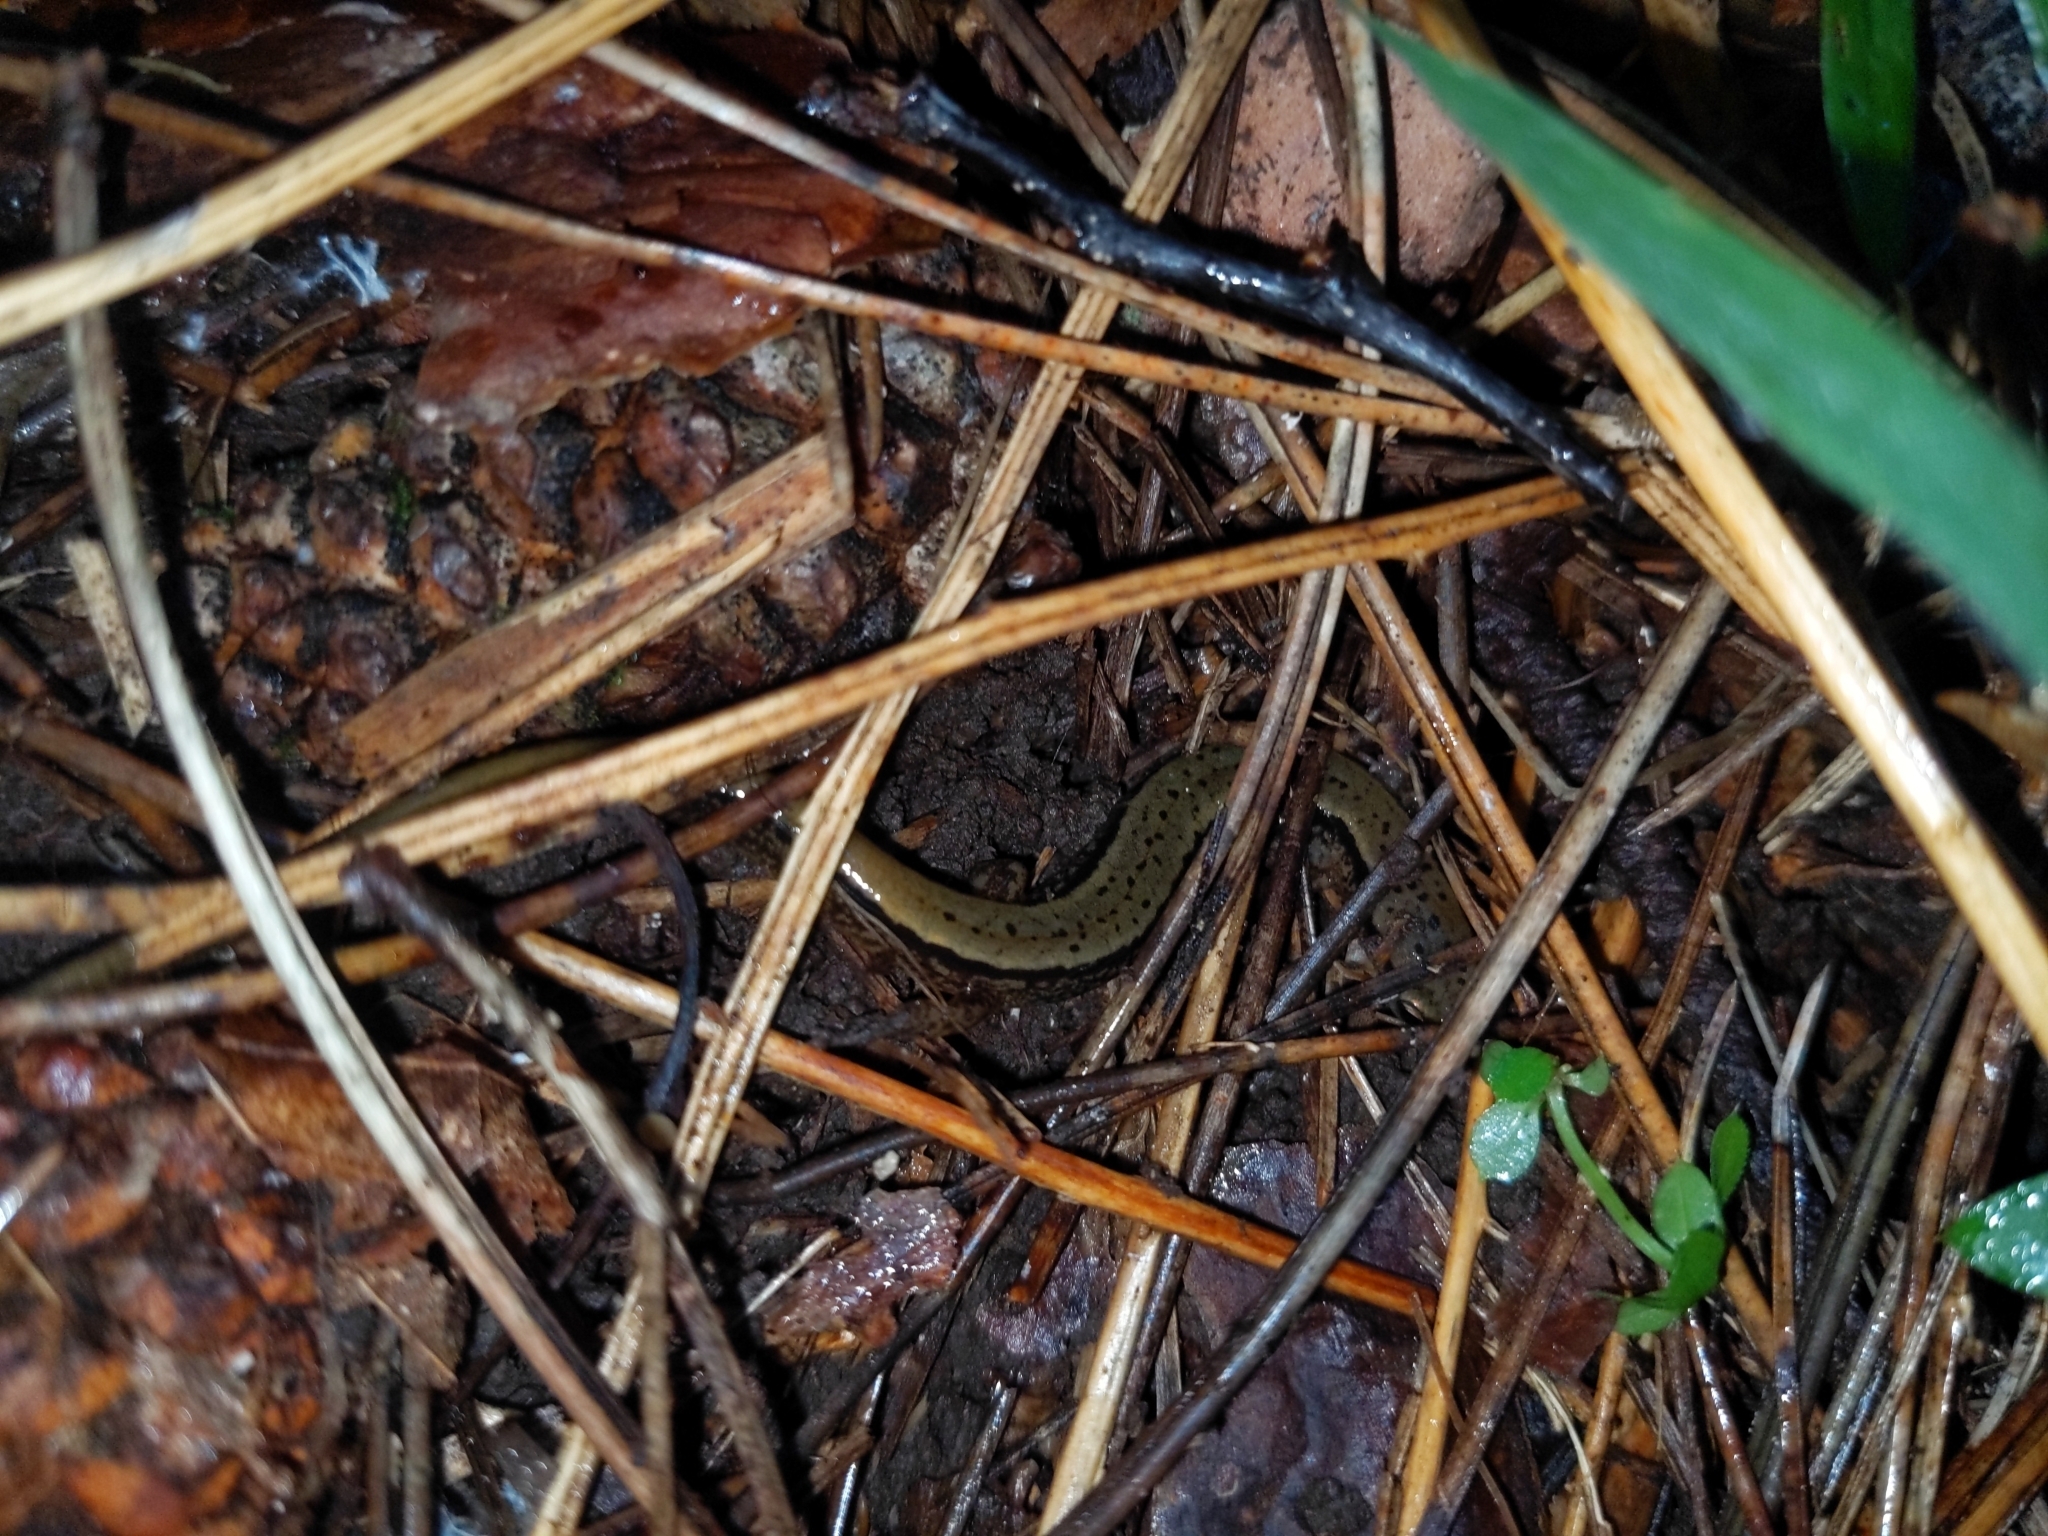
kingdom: Animalia
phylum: Chordata
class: Amphibia
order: Caudata
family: Plethodontidae
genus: Eurycea
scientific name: Eurycea bislineata
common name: Northern two-lined salamander
